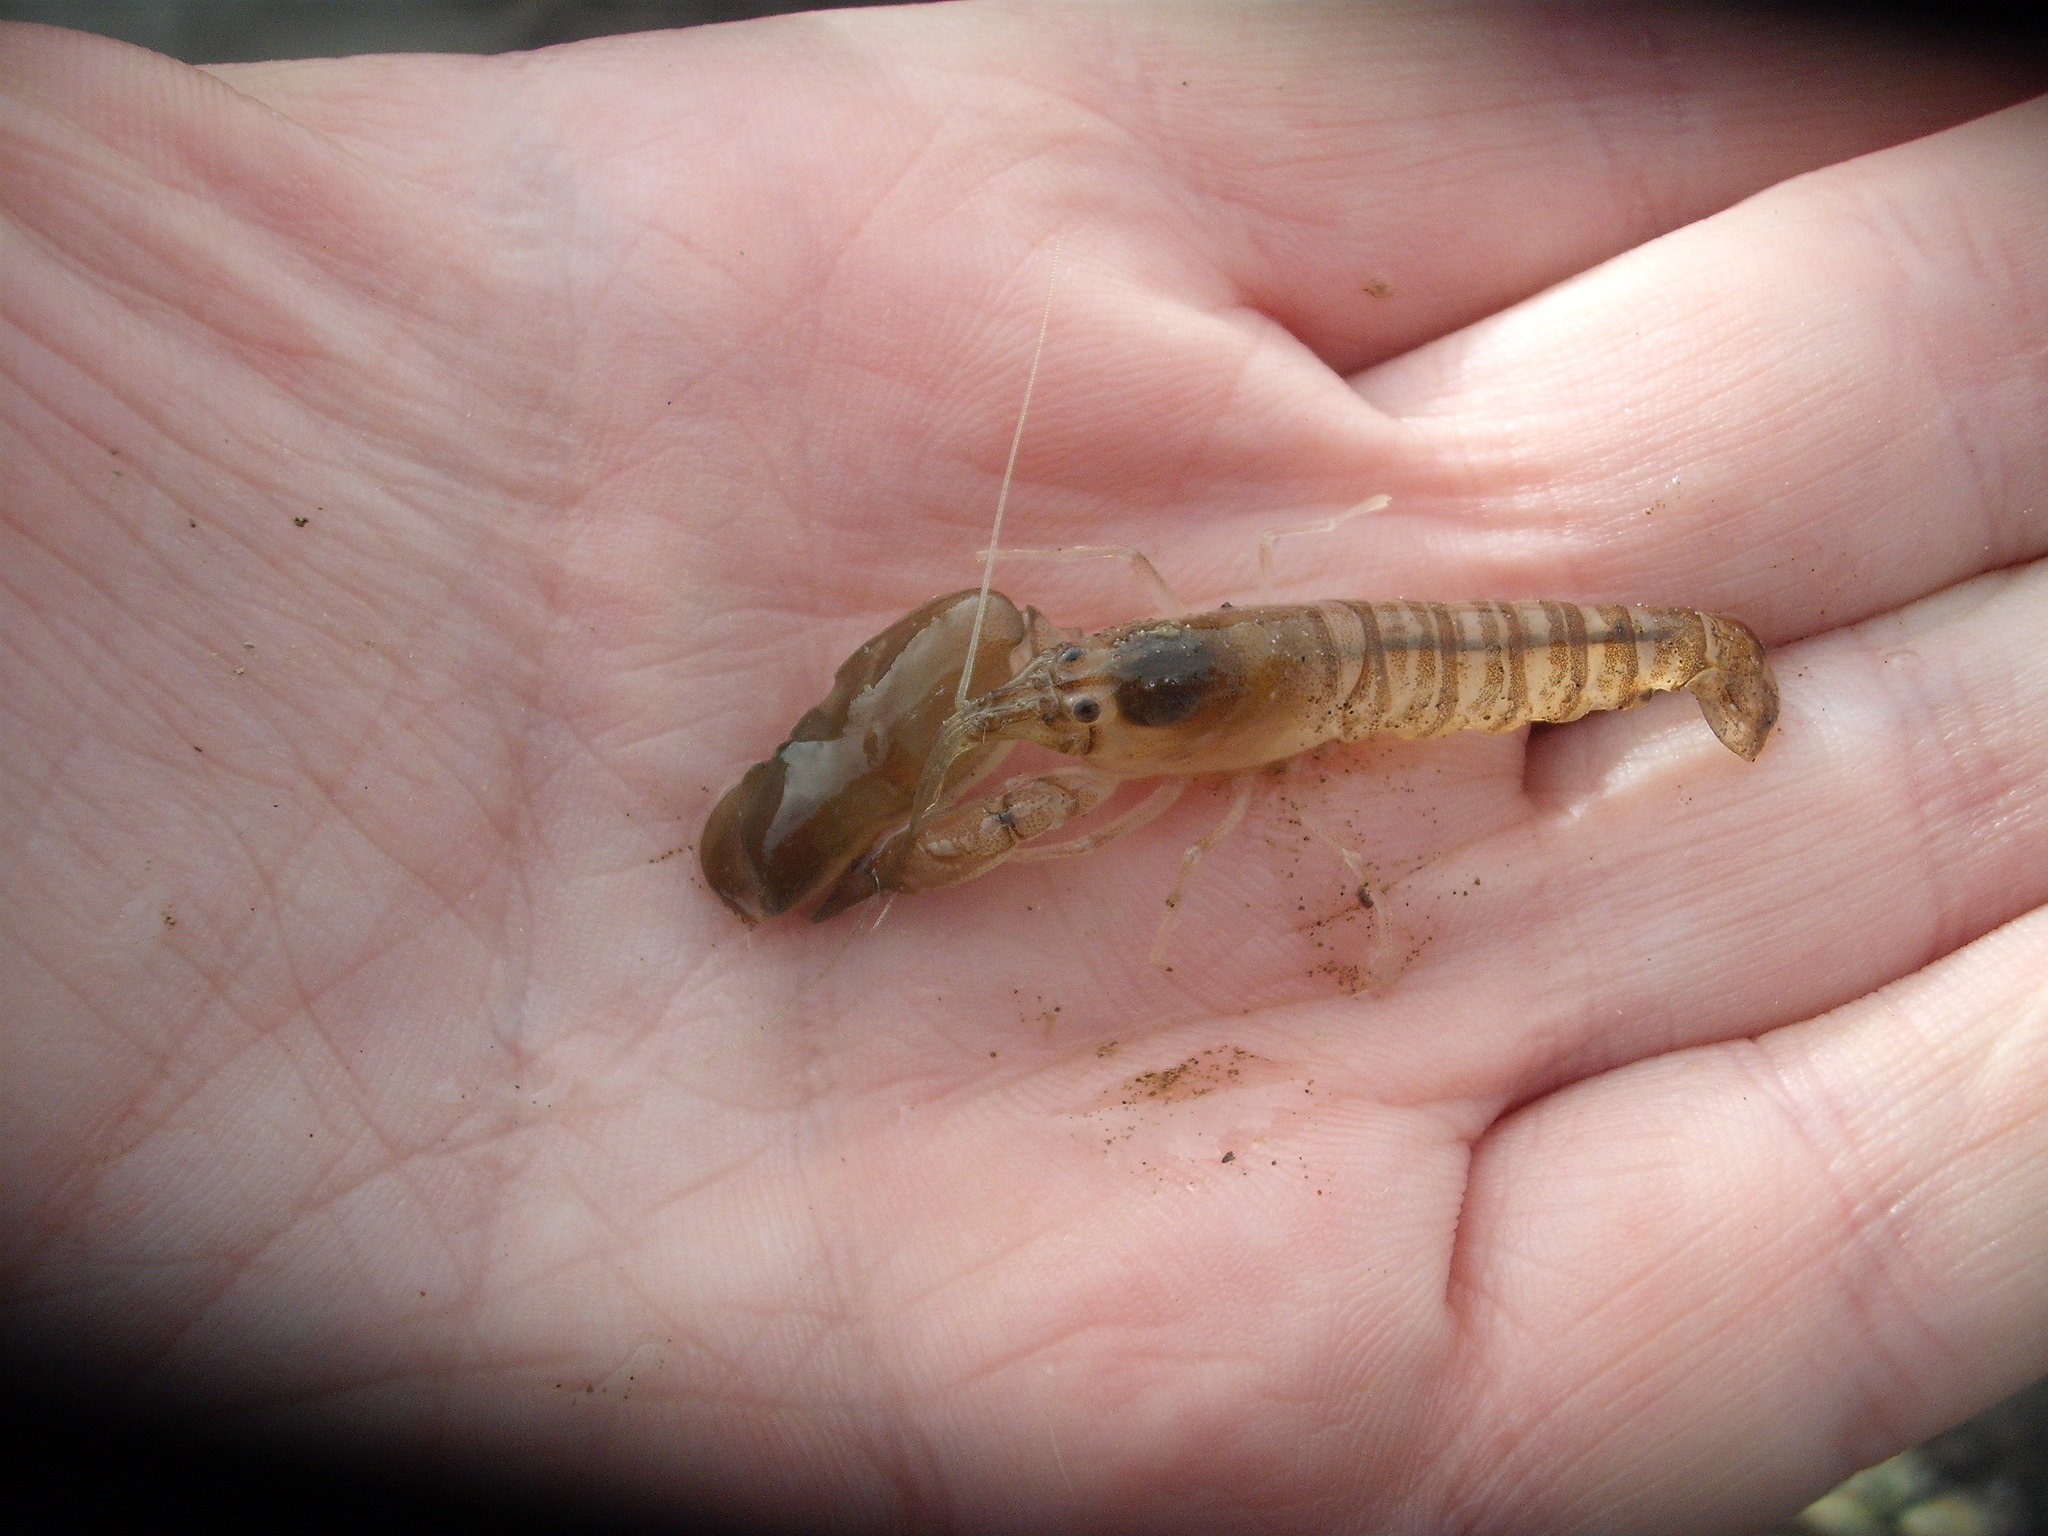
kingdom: Animalia
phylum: Arthropoda
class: Malacostraca
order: Decapoda
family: Alpheidae
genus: Alpheus
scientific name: Alpheus richardsoni
